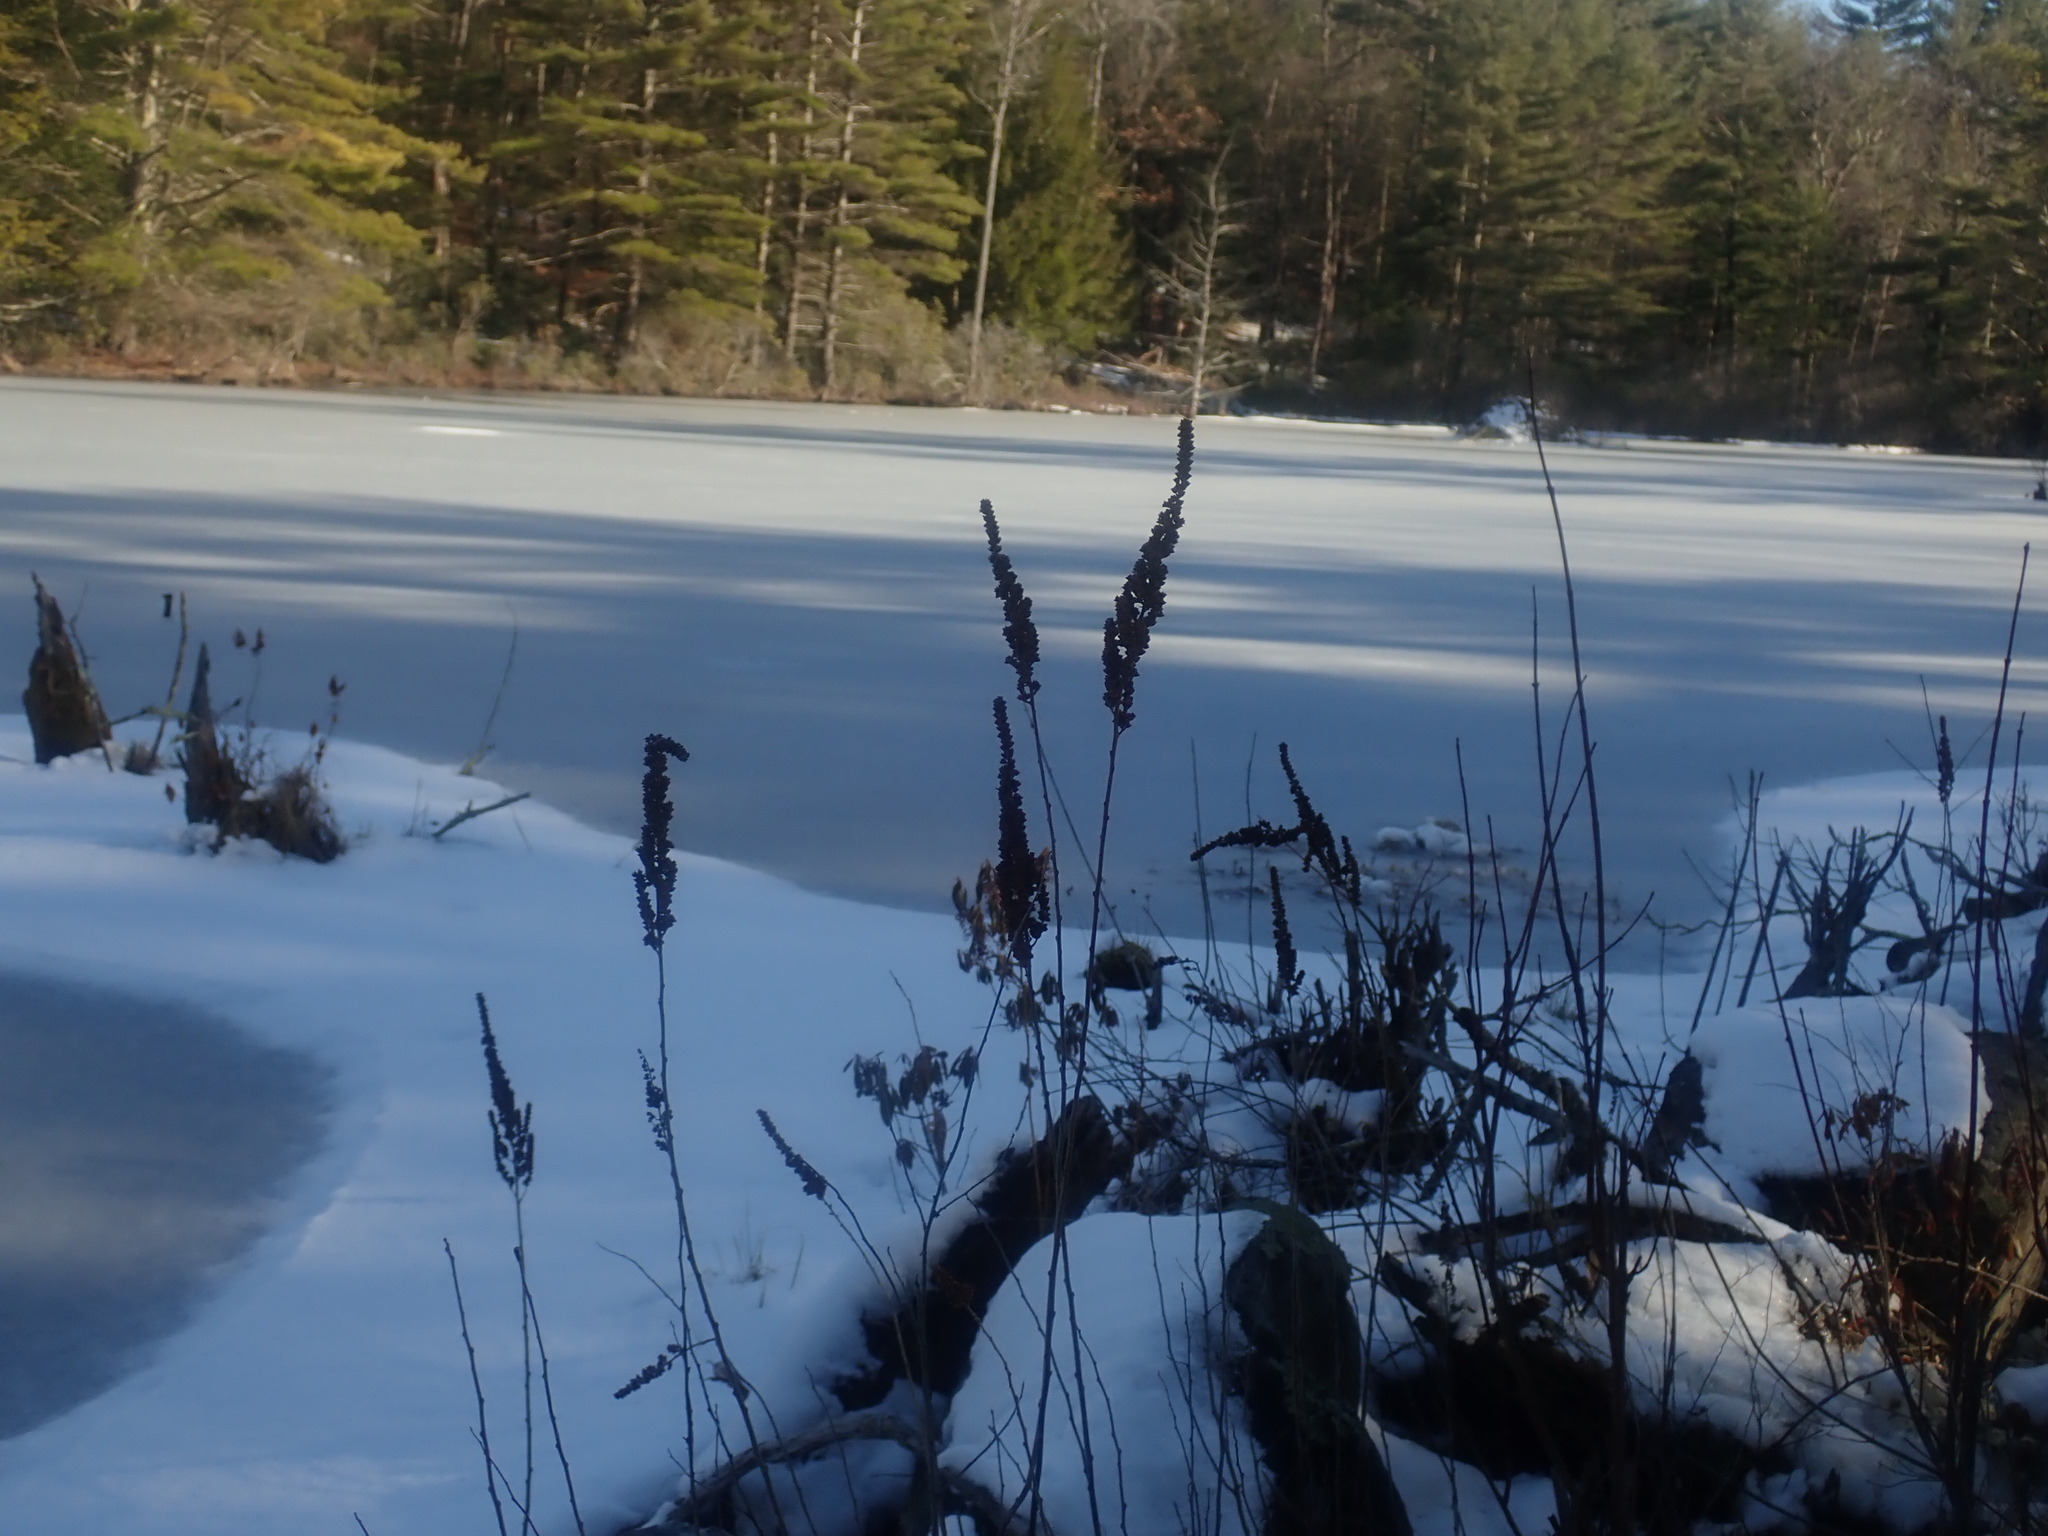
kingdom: Plantae
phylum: Tracheophyta
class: Magnoliopsida
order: Rosales
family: Rosaceae
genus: Spiraea
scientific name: Spiraea tomentosa
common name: Hardhack
